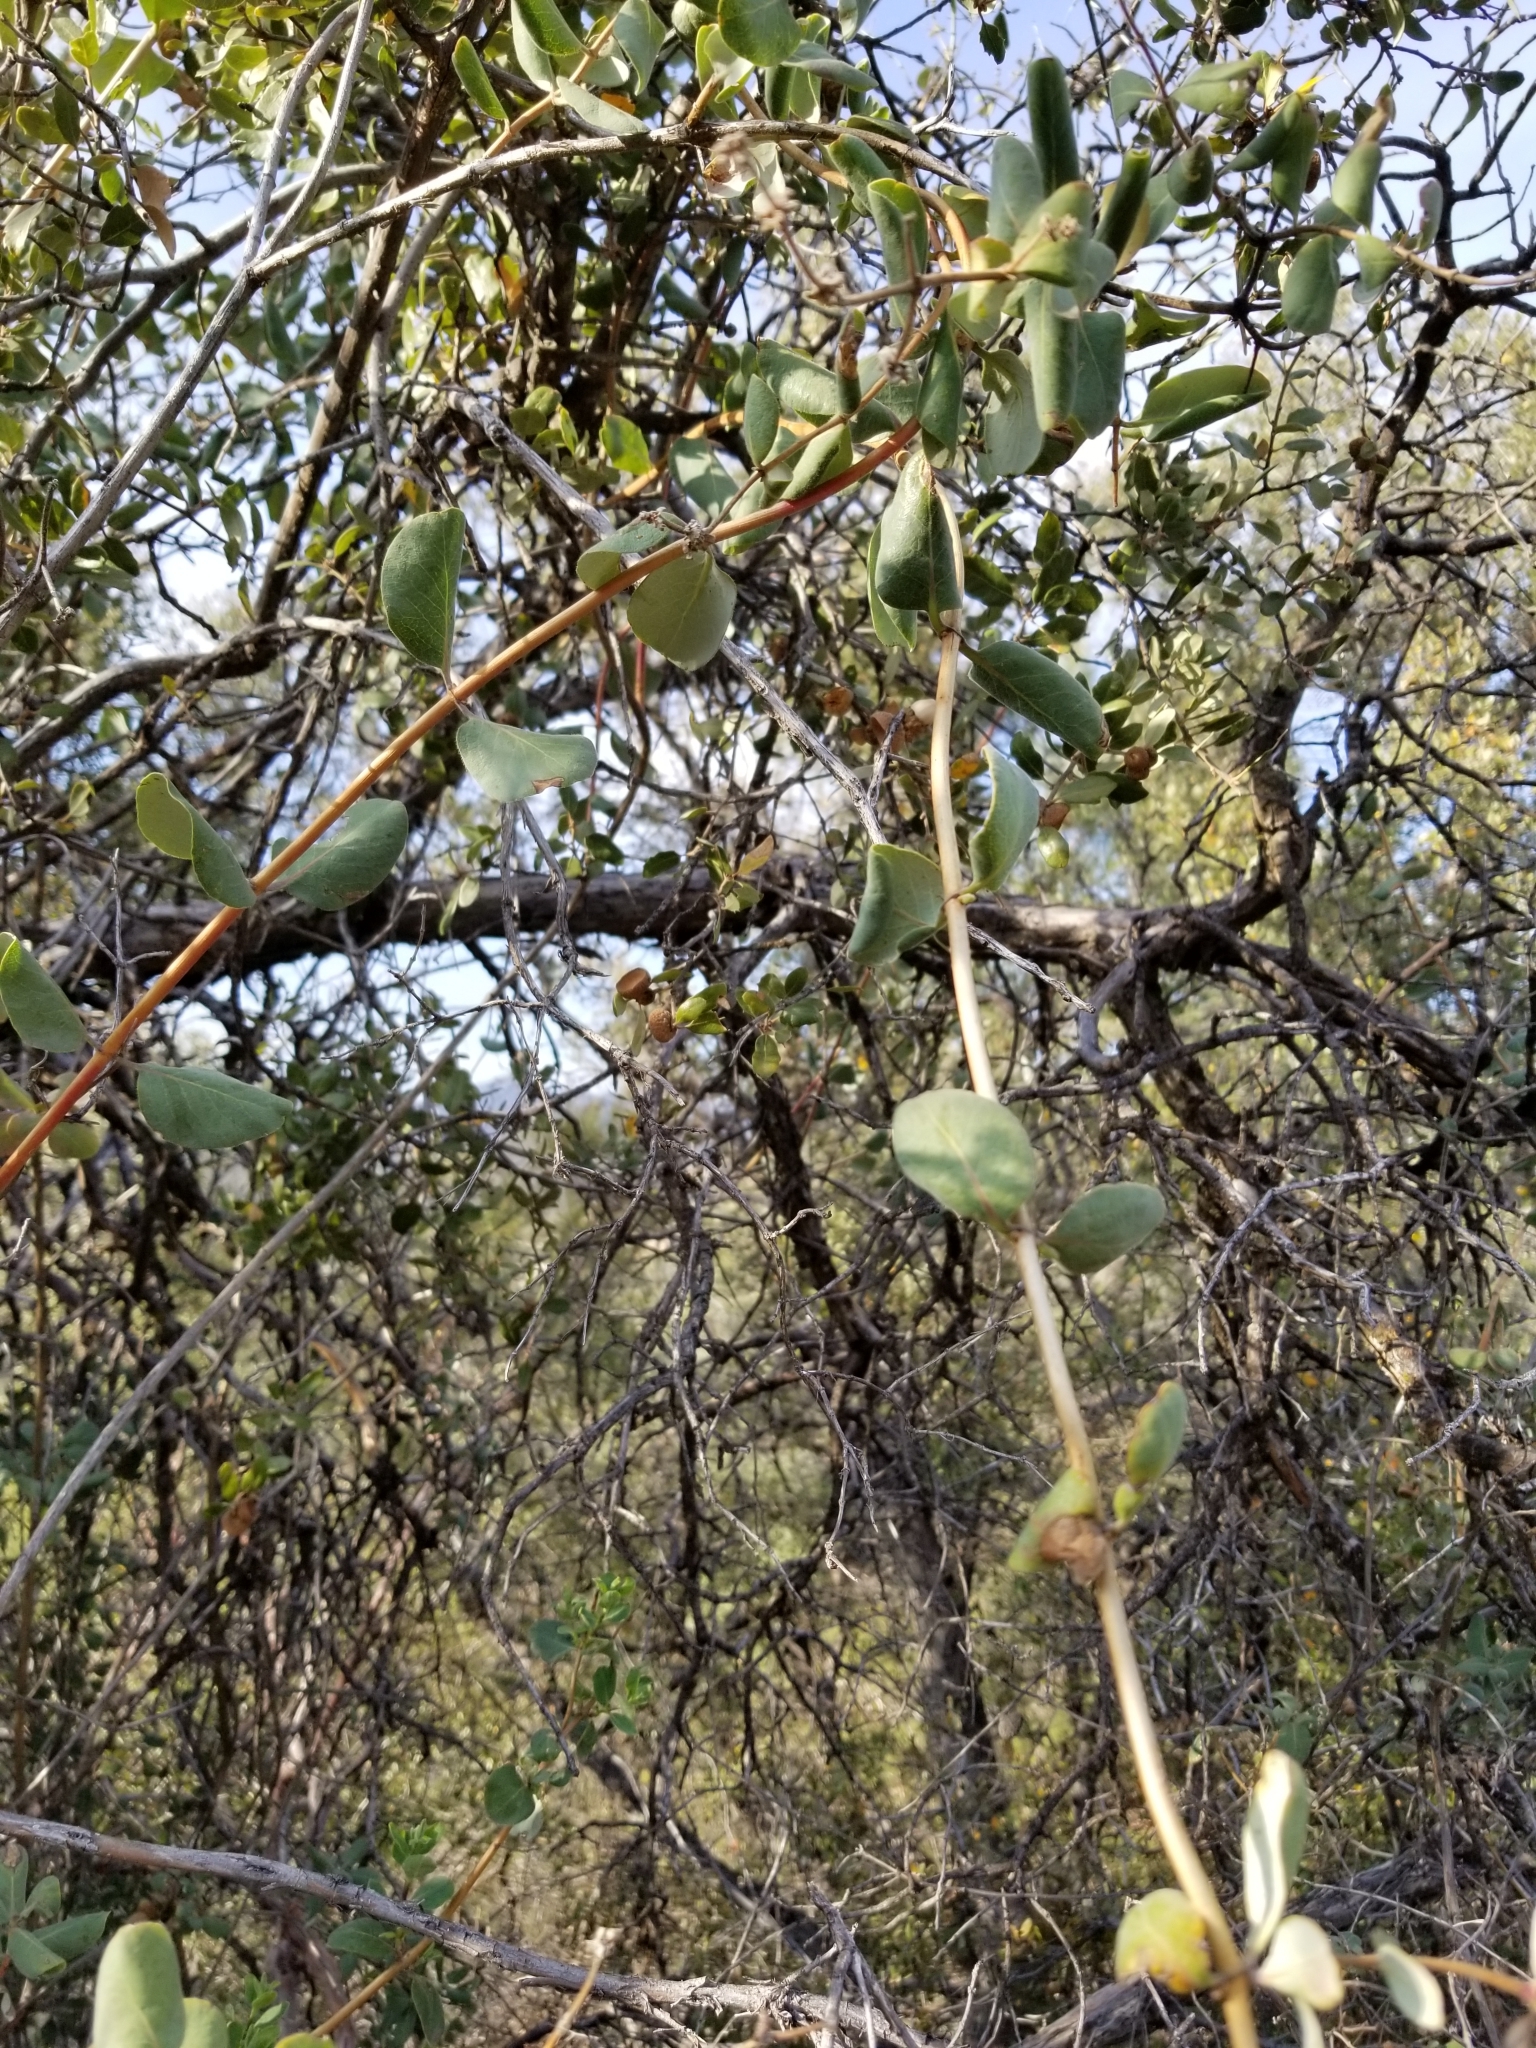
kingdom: Plantae
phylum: Tracheophyta
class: Magnoliopsida
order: Dipsacales
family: Caprifoliaceae
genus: Lonicera
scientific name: Lonicera subspicata
